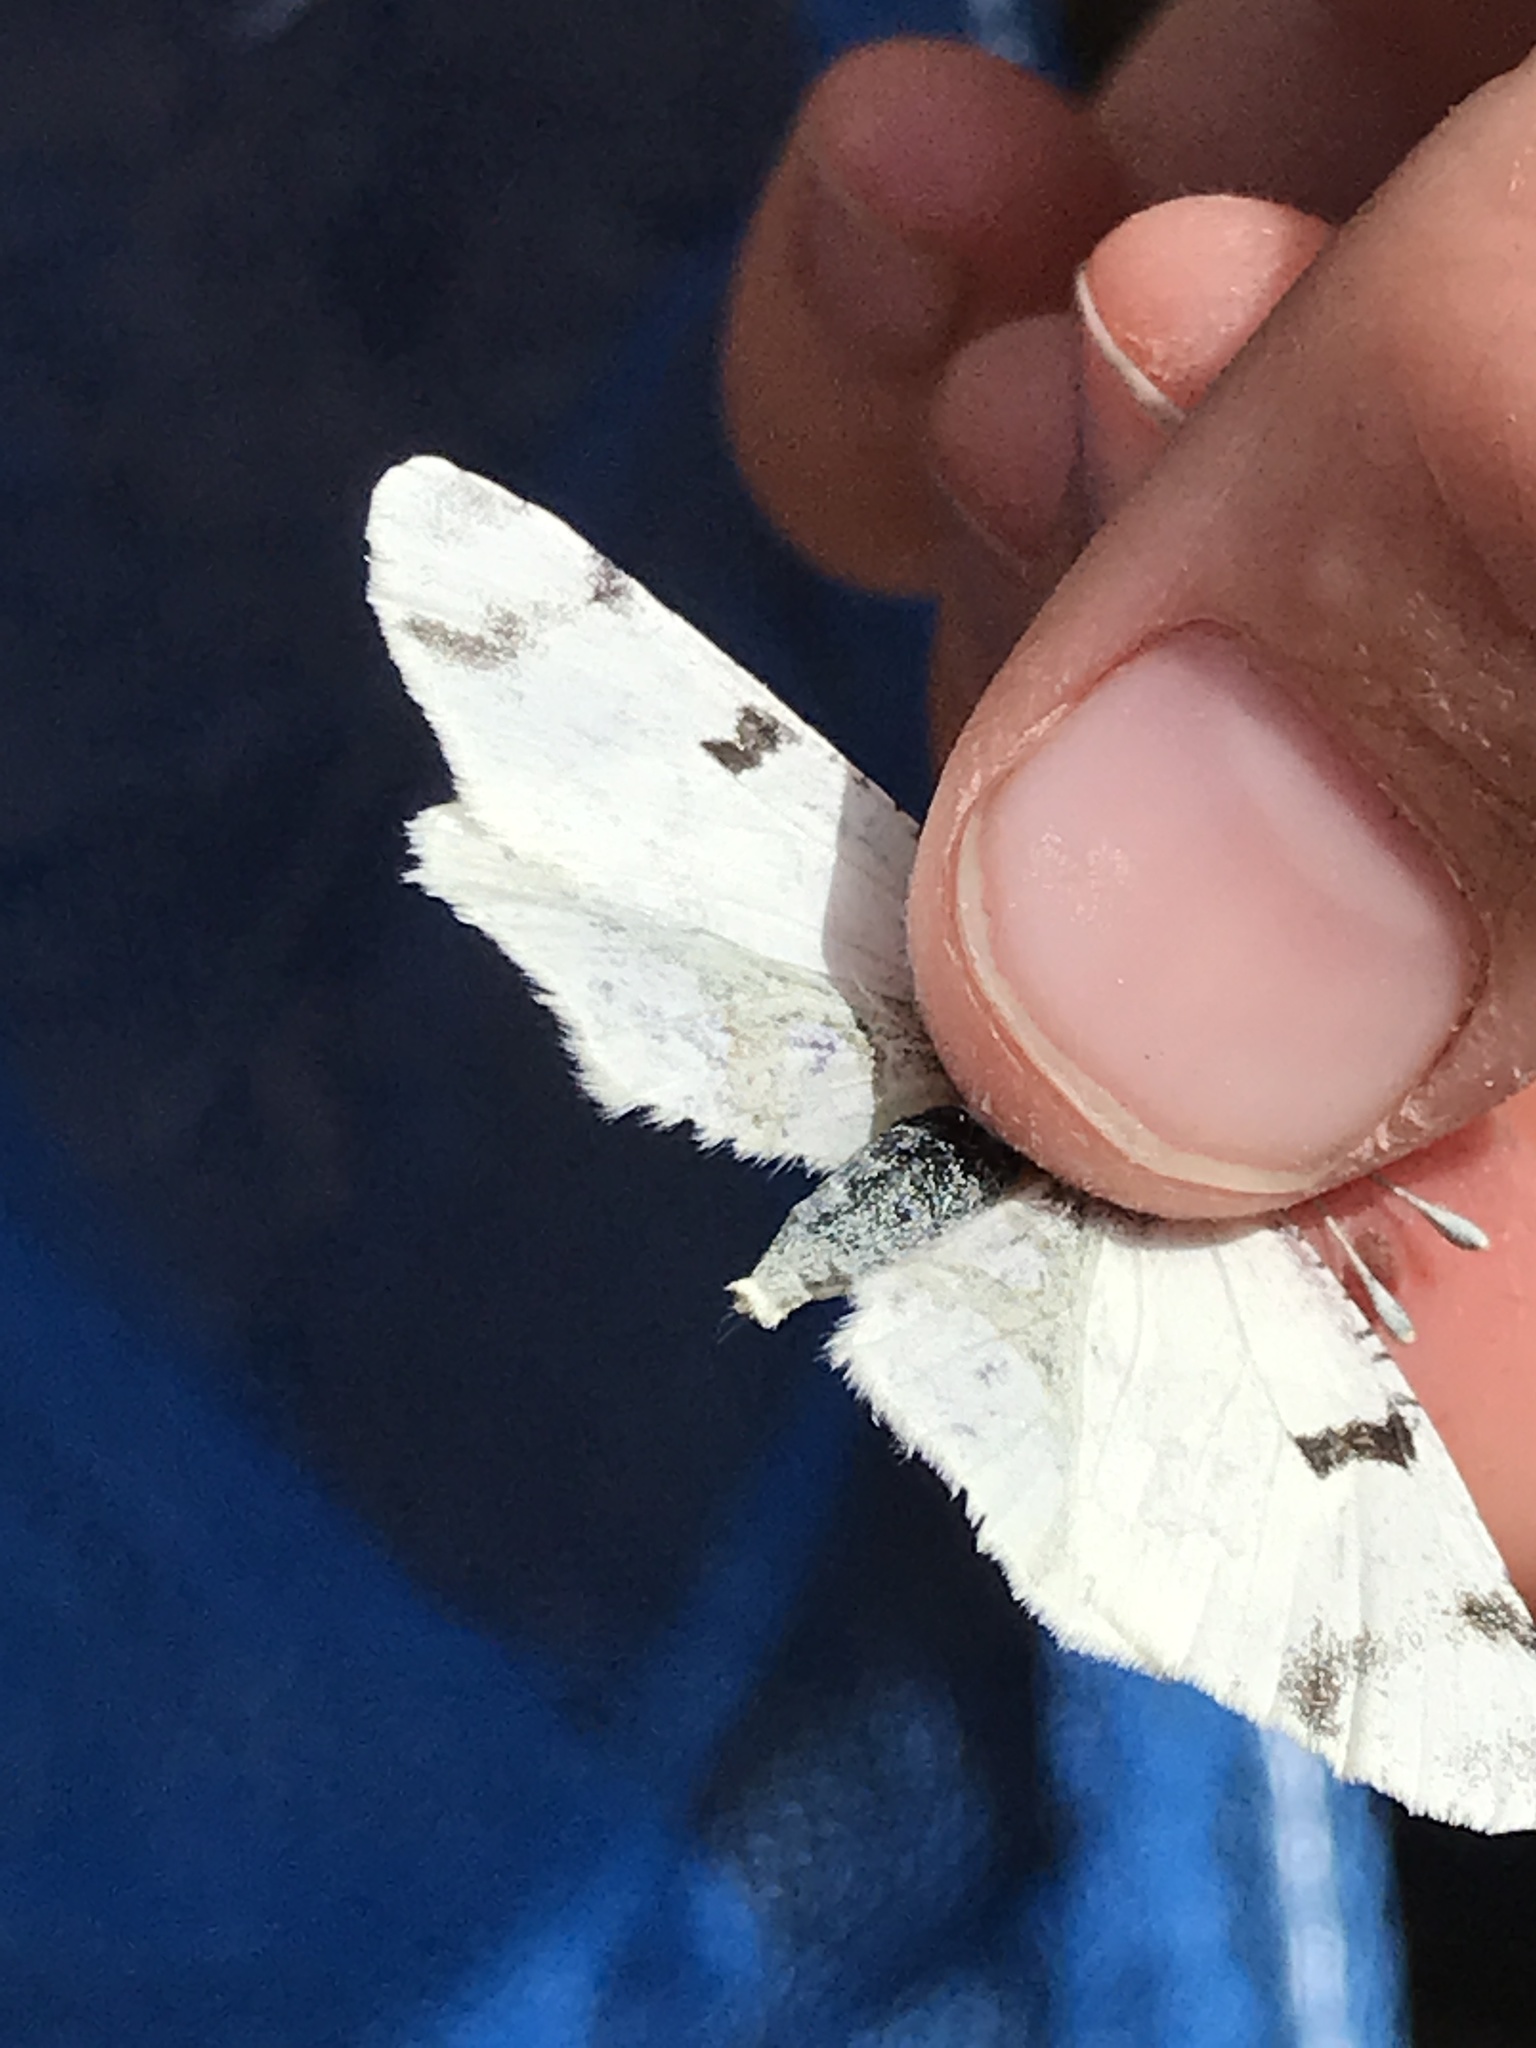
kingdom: Animalia
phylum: Arthropoda
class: Insecta
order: Lepidoptera
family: Pieridae
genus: Euchloe
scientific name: Euchloe olympia
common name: Olympia
